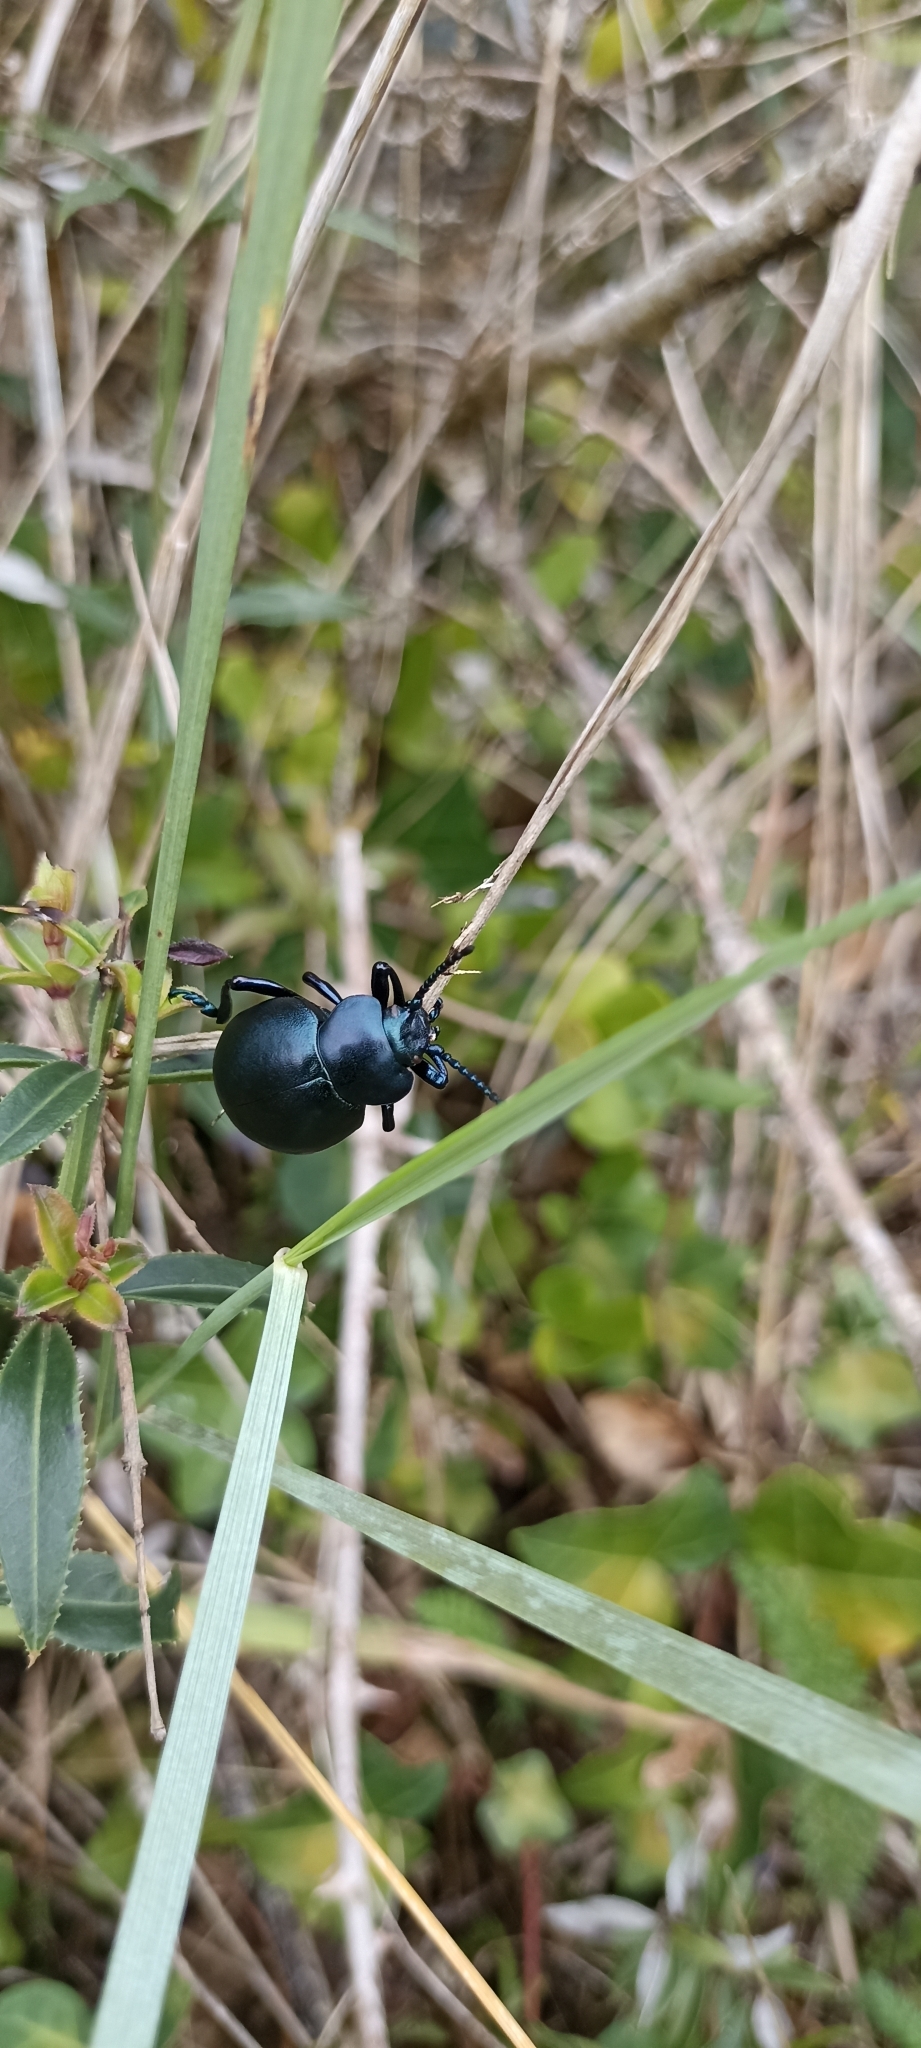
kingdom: Animalia
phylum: Arthropoda
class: Insecta
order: Coleoptera
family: Chrysomelidae
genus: Timarcha
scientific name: Timarcha tenebricosa
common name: Bloody-nosed beetle
